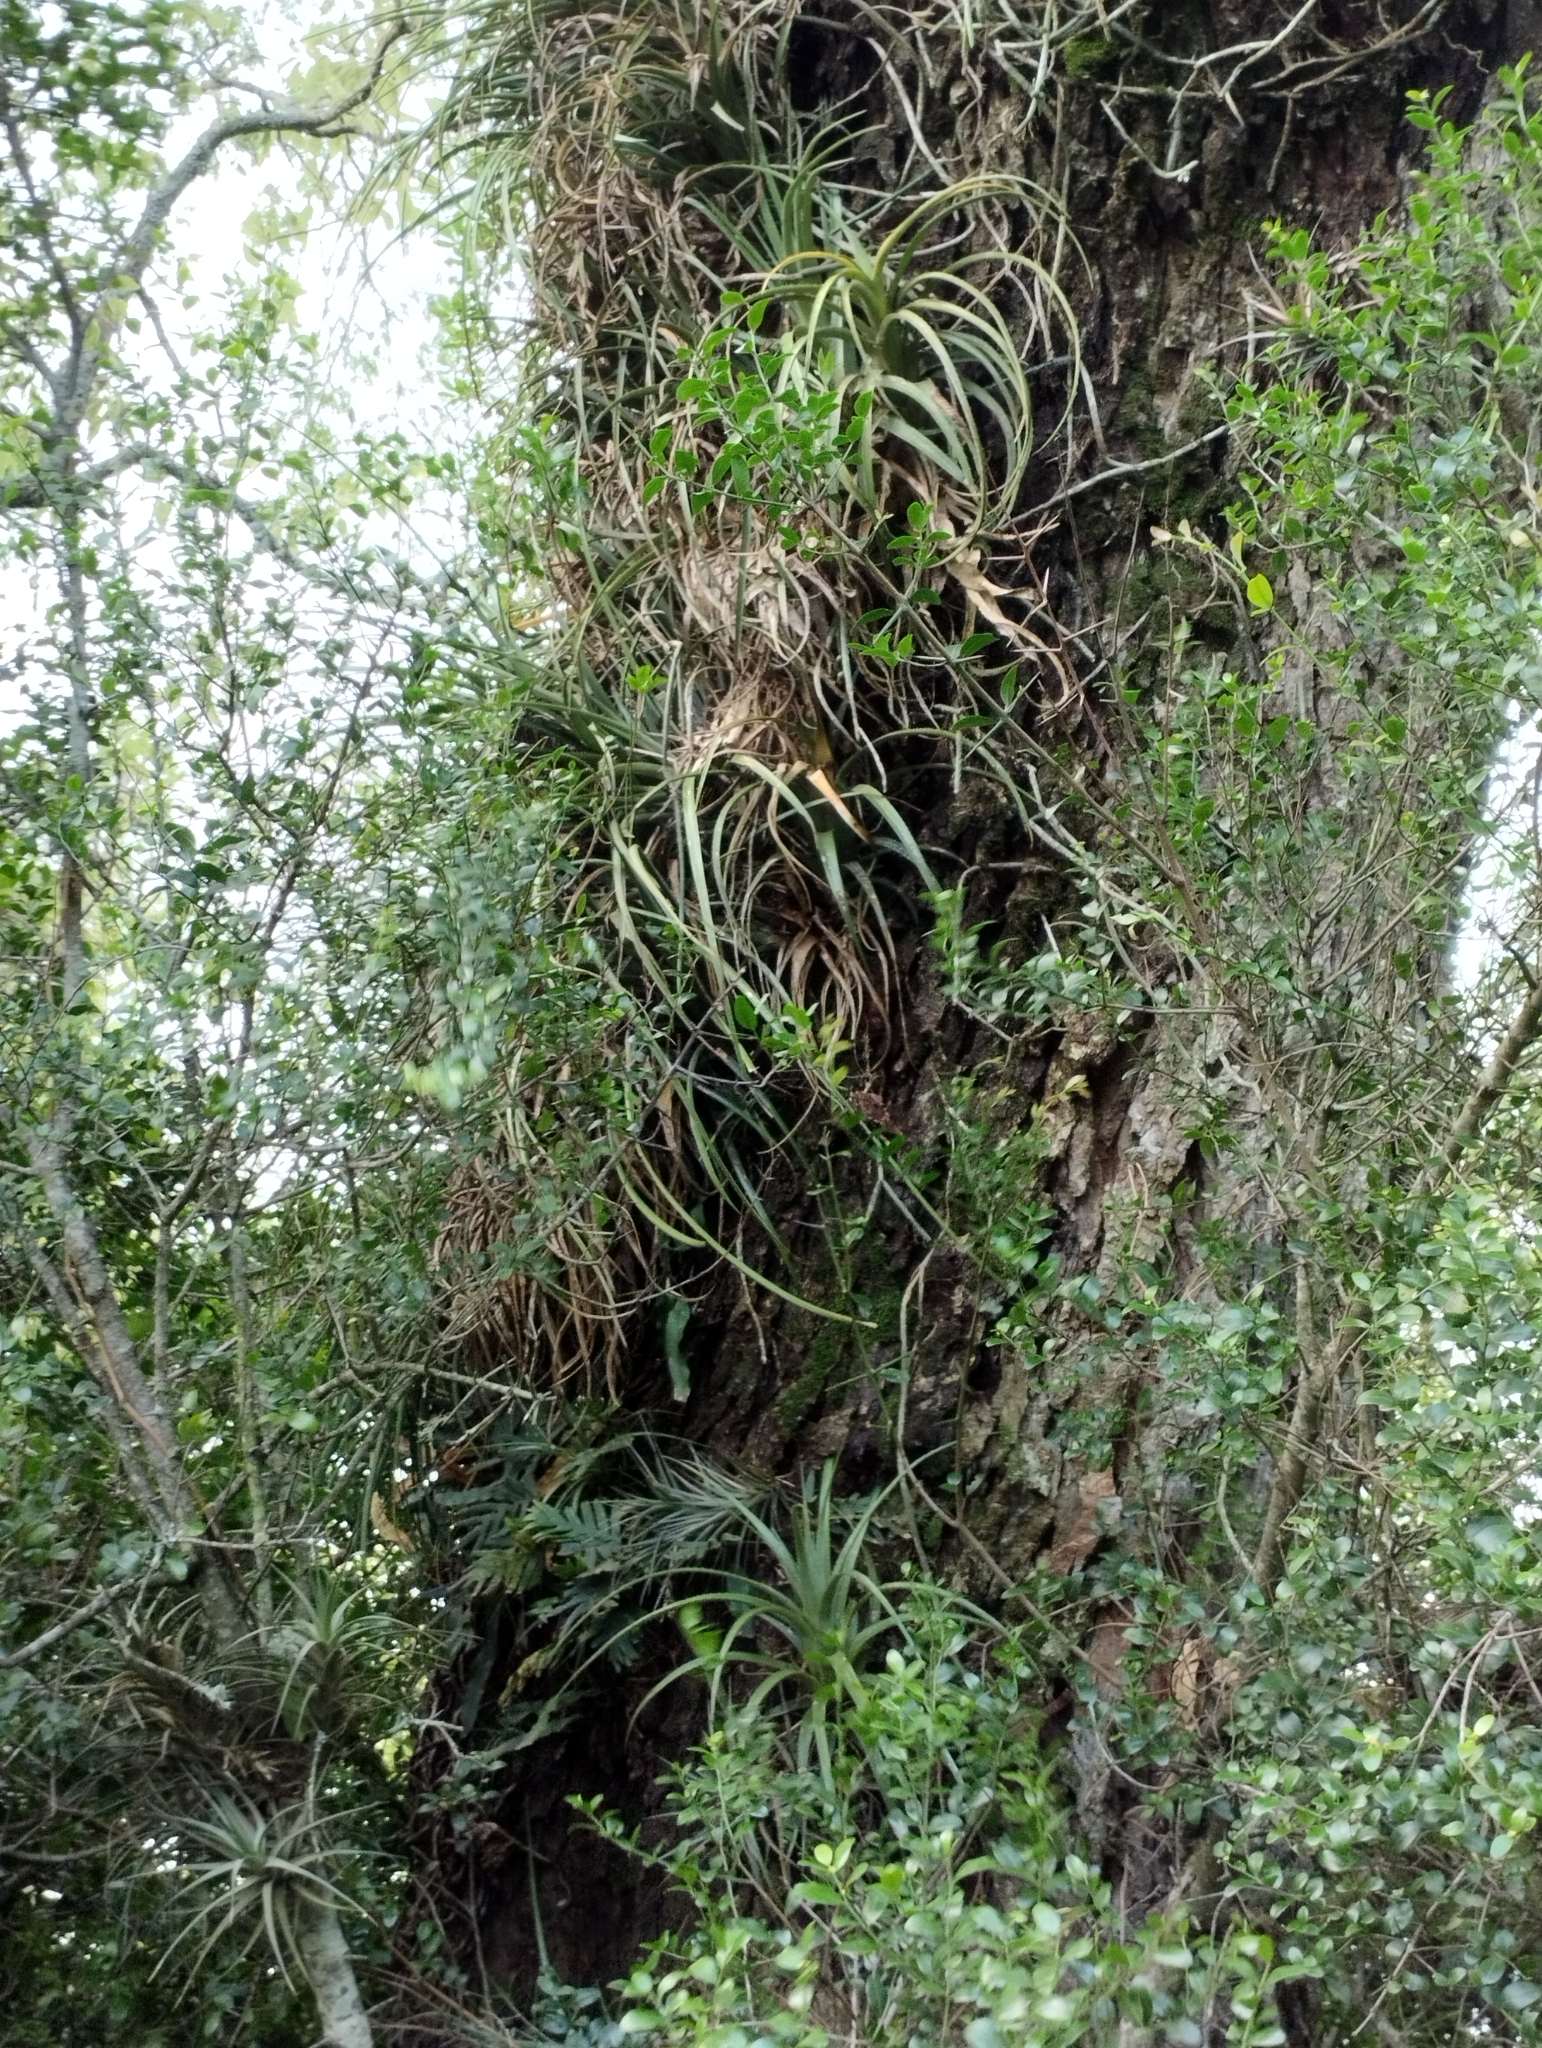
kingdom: Plantae
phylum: Tracheophyta
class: Liliopsida
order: Poales
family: Bromeliaceae
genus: Aechmea
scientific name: Aechmea recurvata
